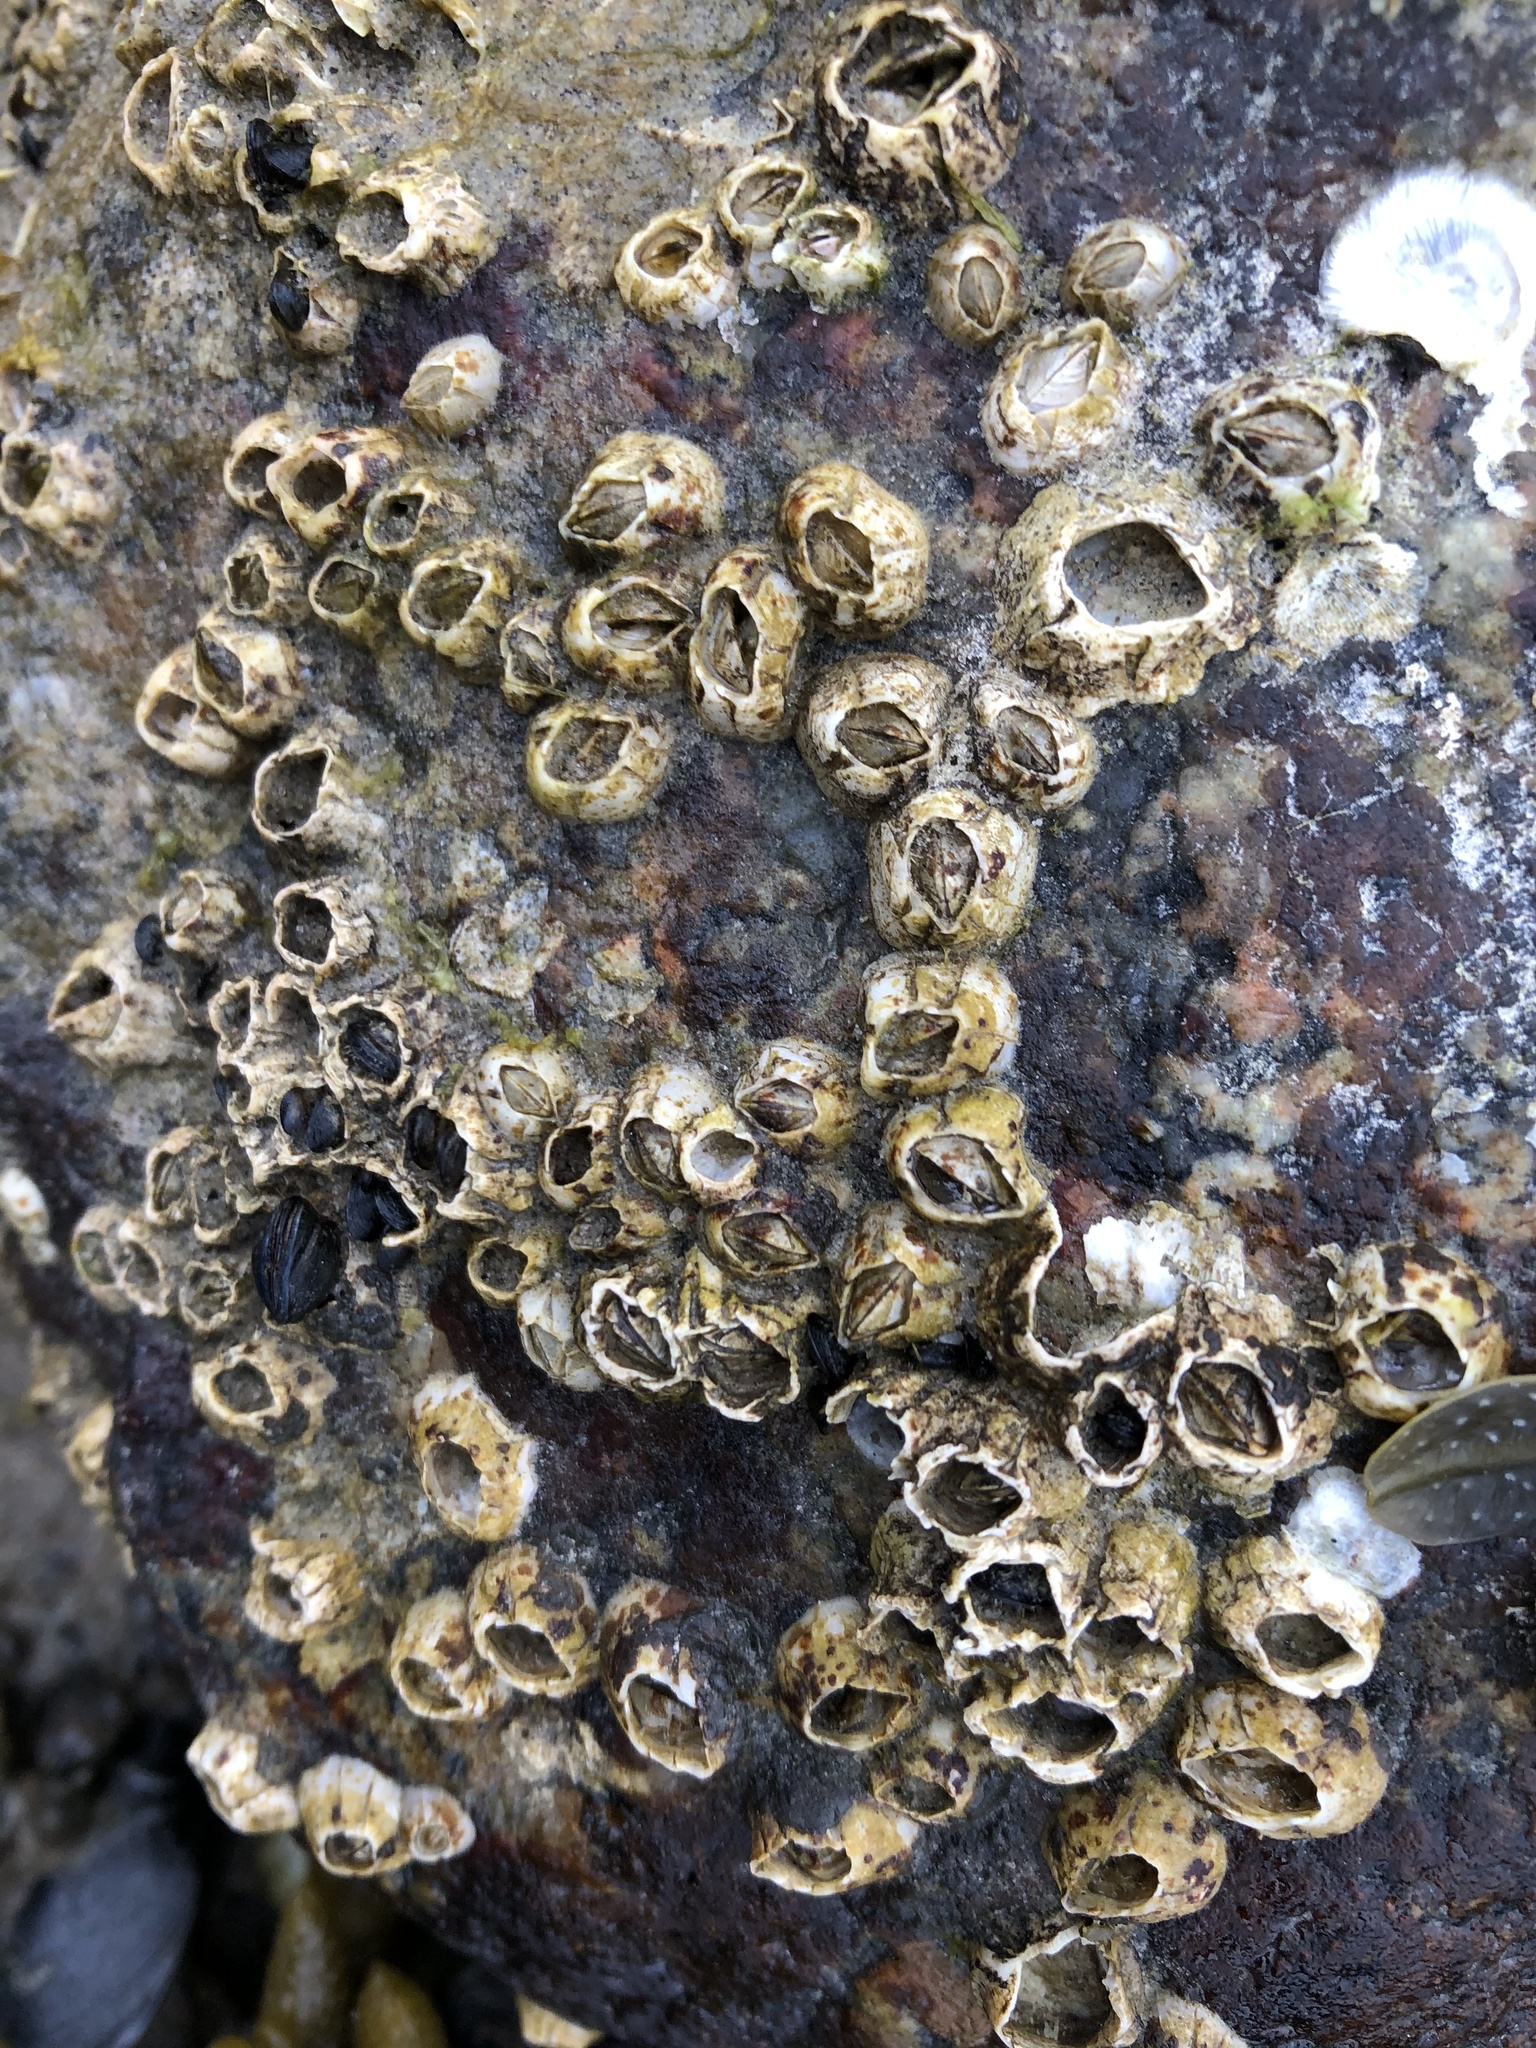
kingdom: Animalia
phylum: Arthropoda
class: Maxillopoda
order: Sessilia
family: Balanidae
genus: Balanus
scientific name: Balanus crenatus
